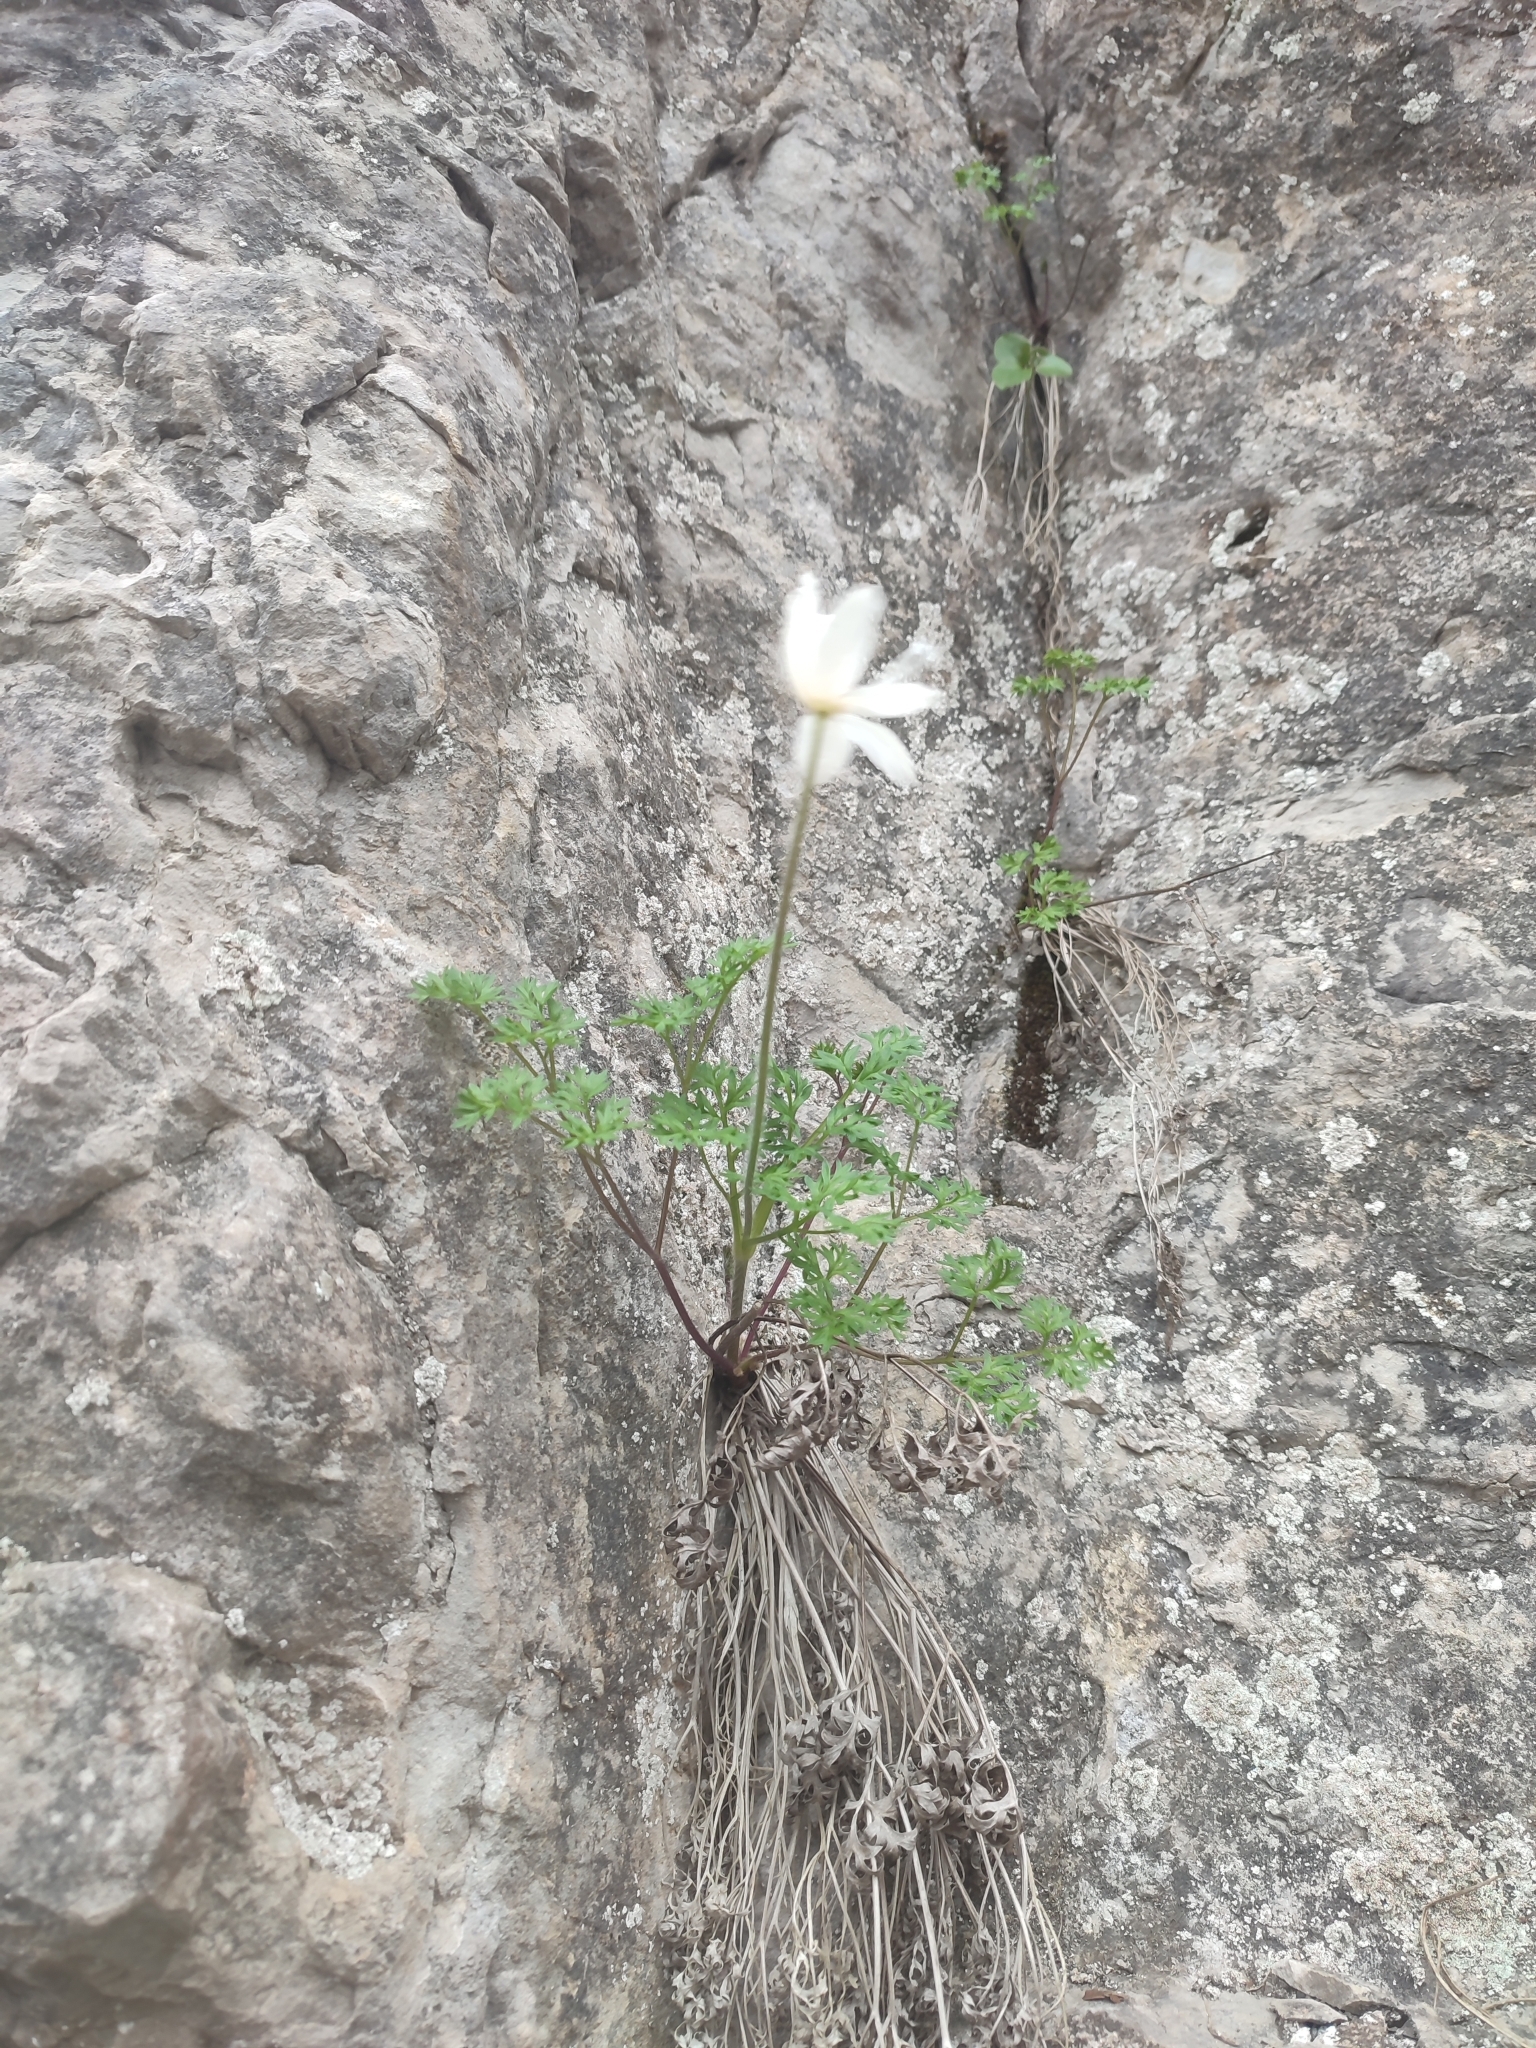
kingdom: Plantae
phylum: Tracheophyta
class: Magnoliopsida
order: Ranunculales
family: Ranunculaceae
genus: Anemone
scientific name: Anemone baldensis
